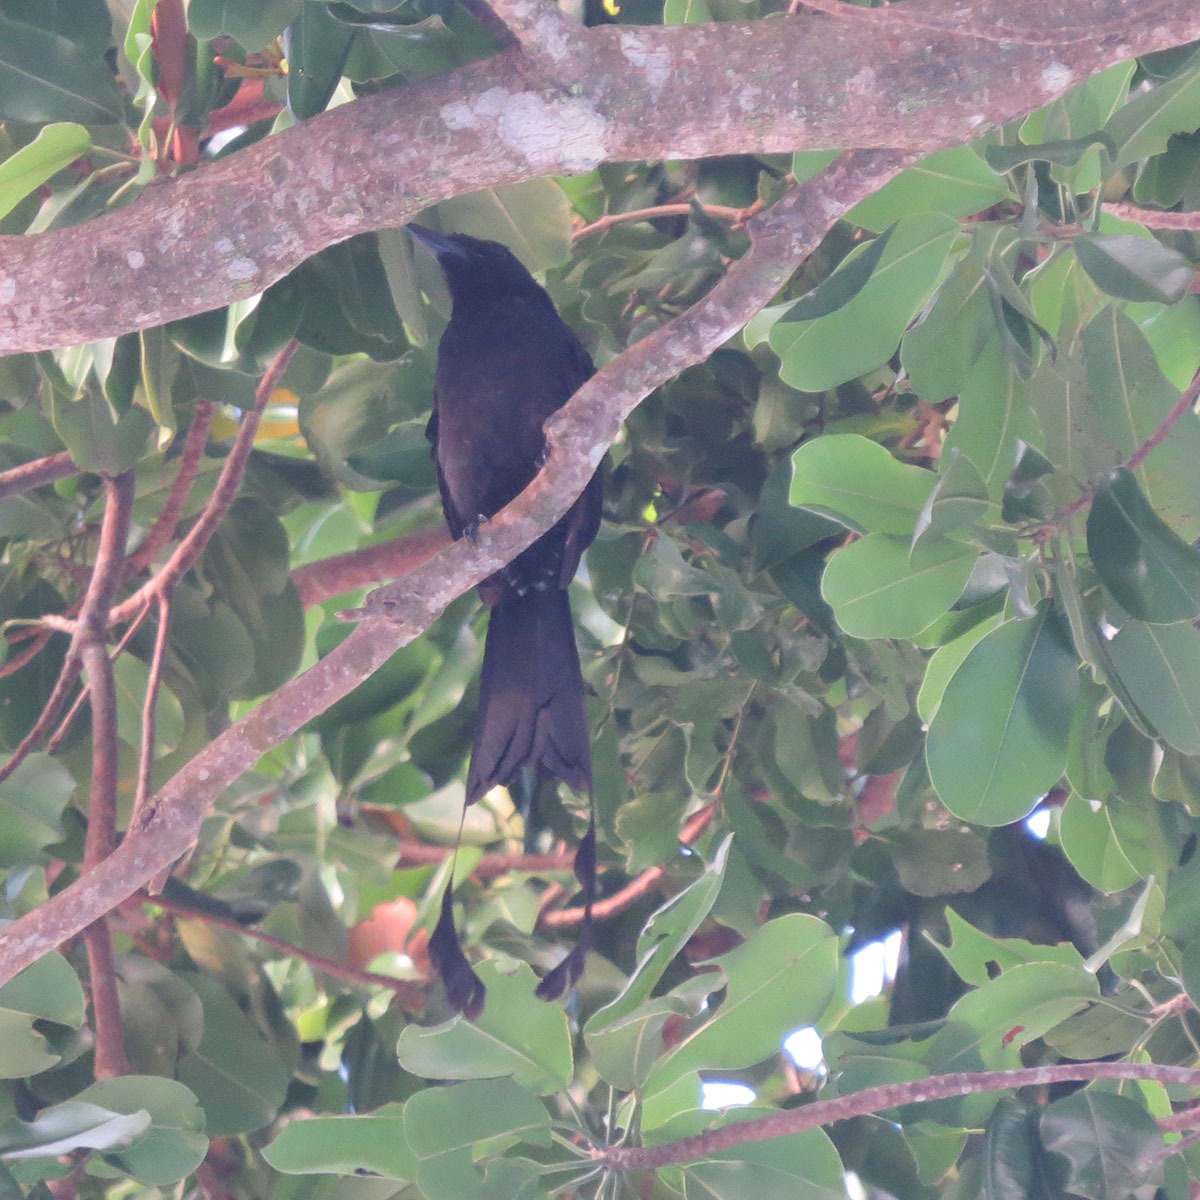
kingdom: Animalia
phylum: Chordata
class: Aves
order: Passeriformes
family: Dicruridae
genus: Dicrurus
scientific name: Dicrurus paradiseus
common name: Greater racket-tailed drongo
